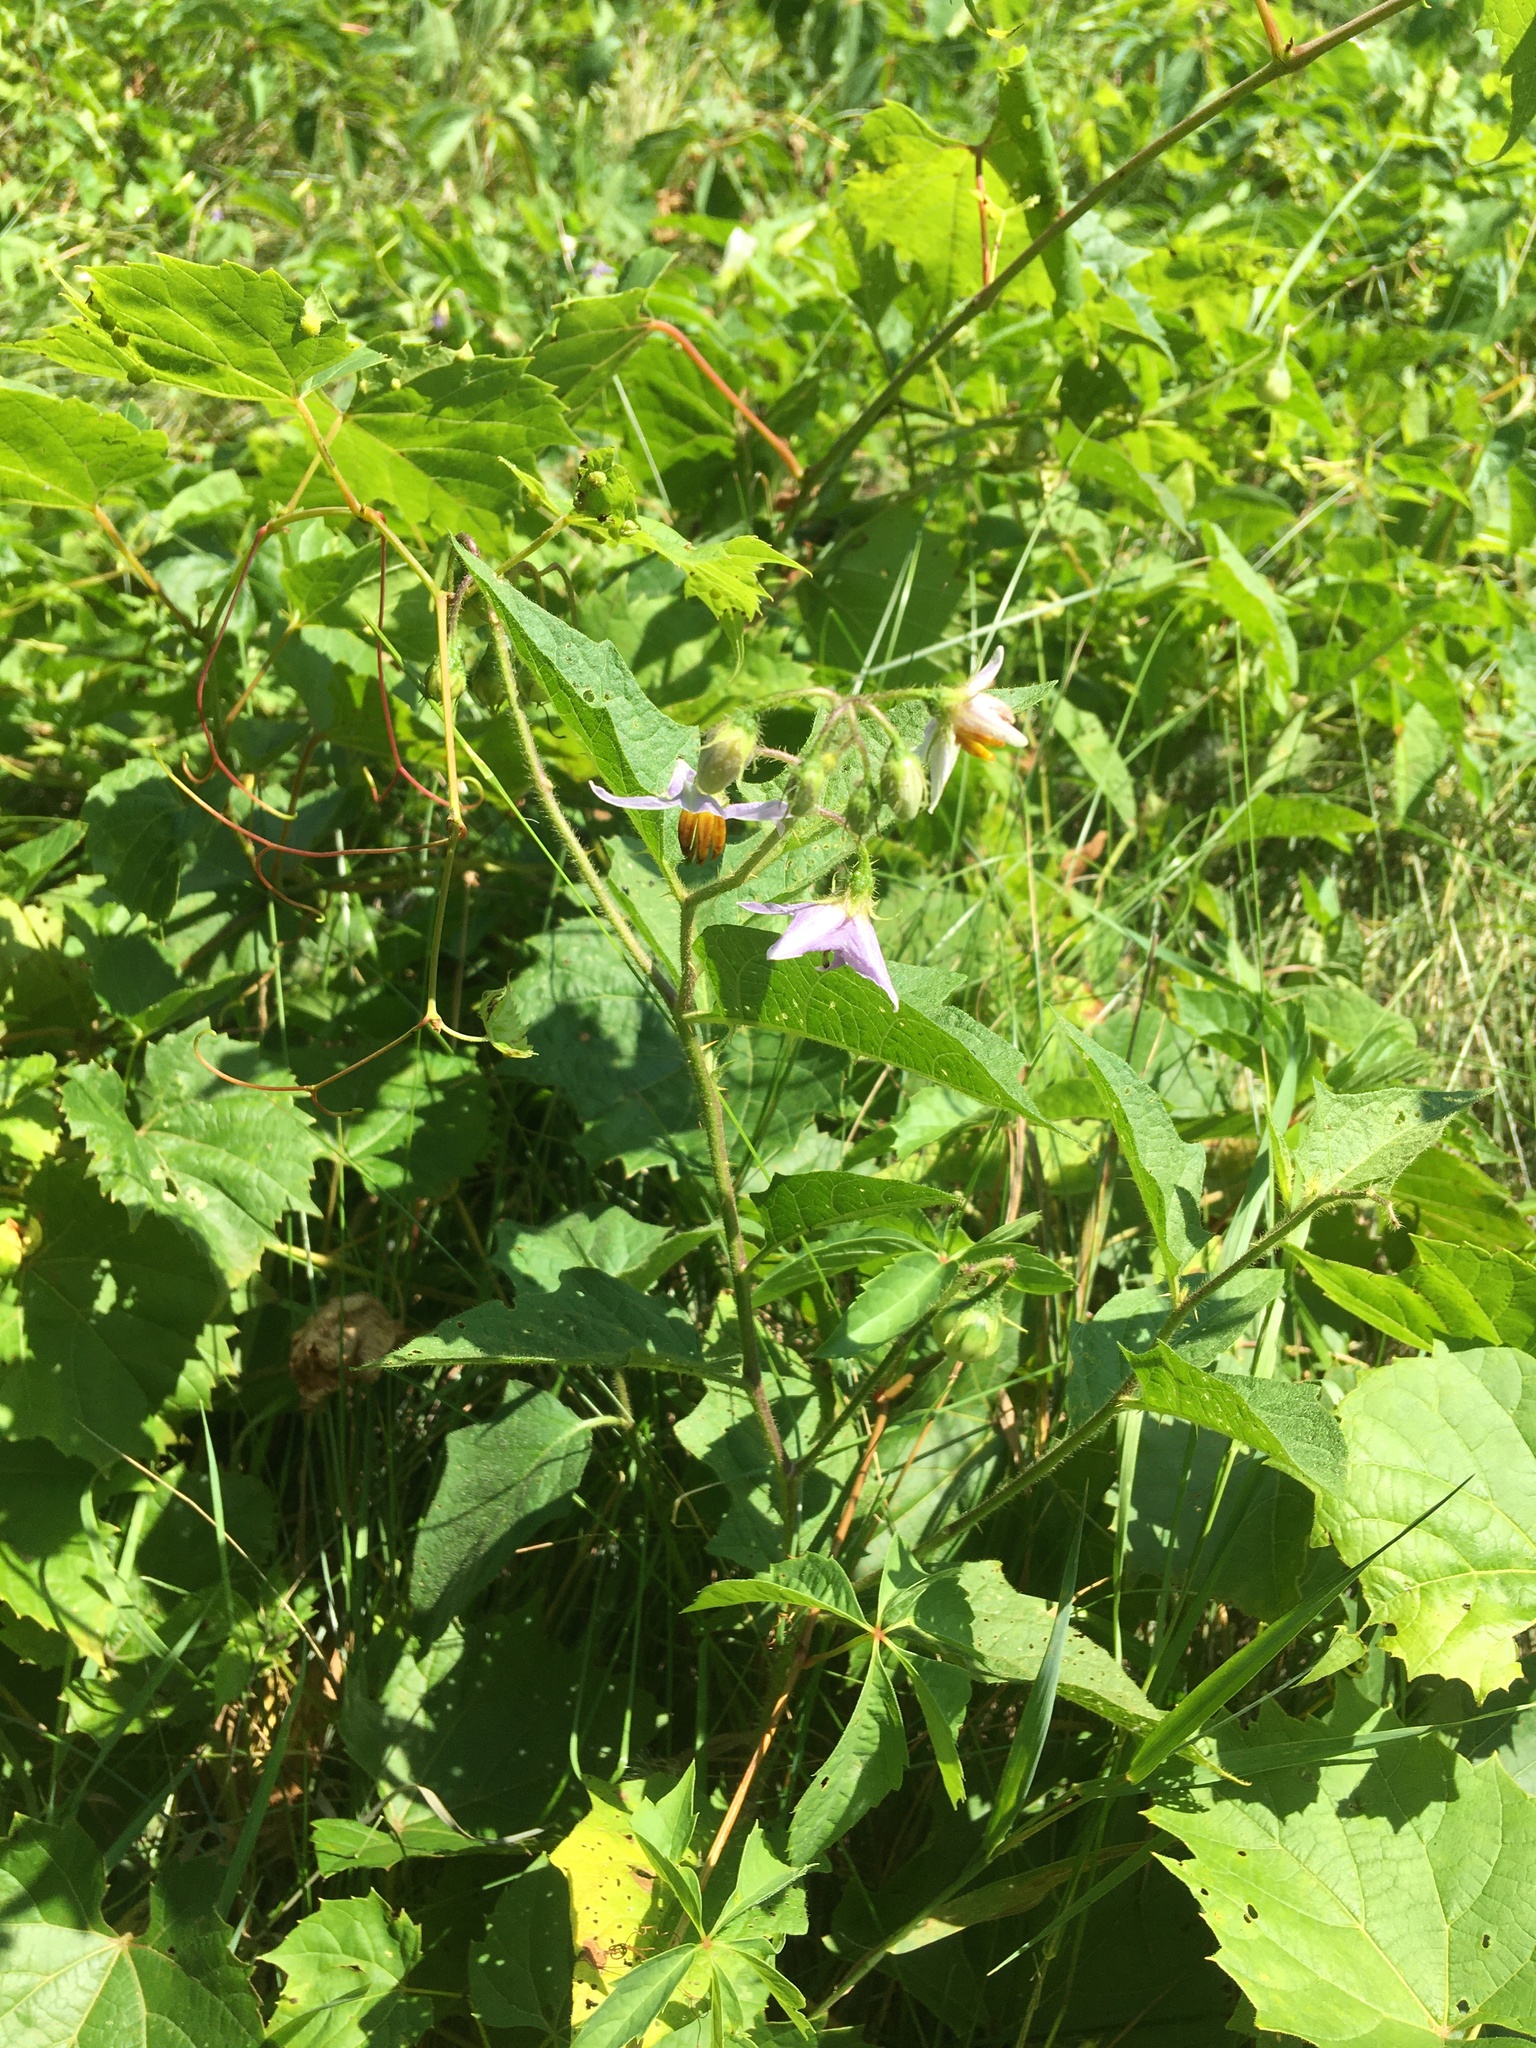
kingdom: Plantae
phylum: Tracheophyta
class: Magnoliopsida
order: Solanales
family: Solanaceae
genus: Solanum
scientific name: Solanum carolinense
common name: Horse-nettle
